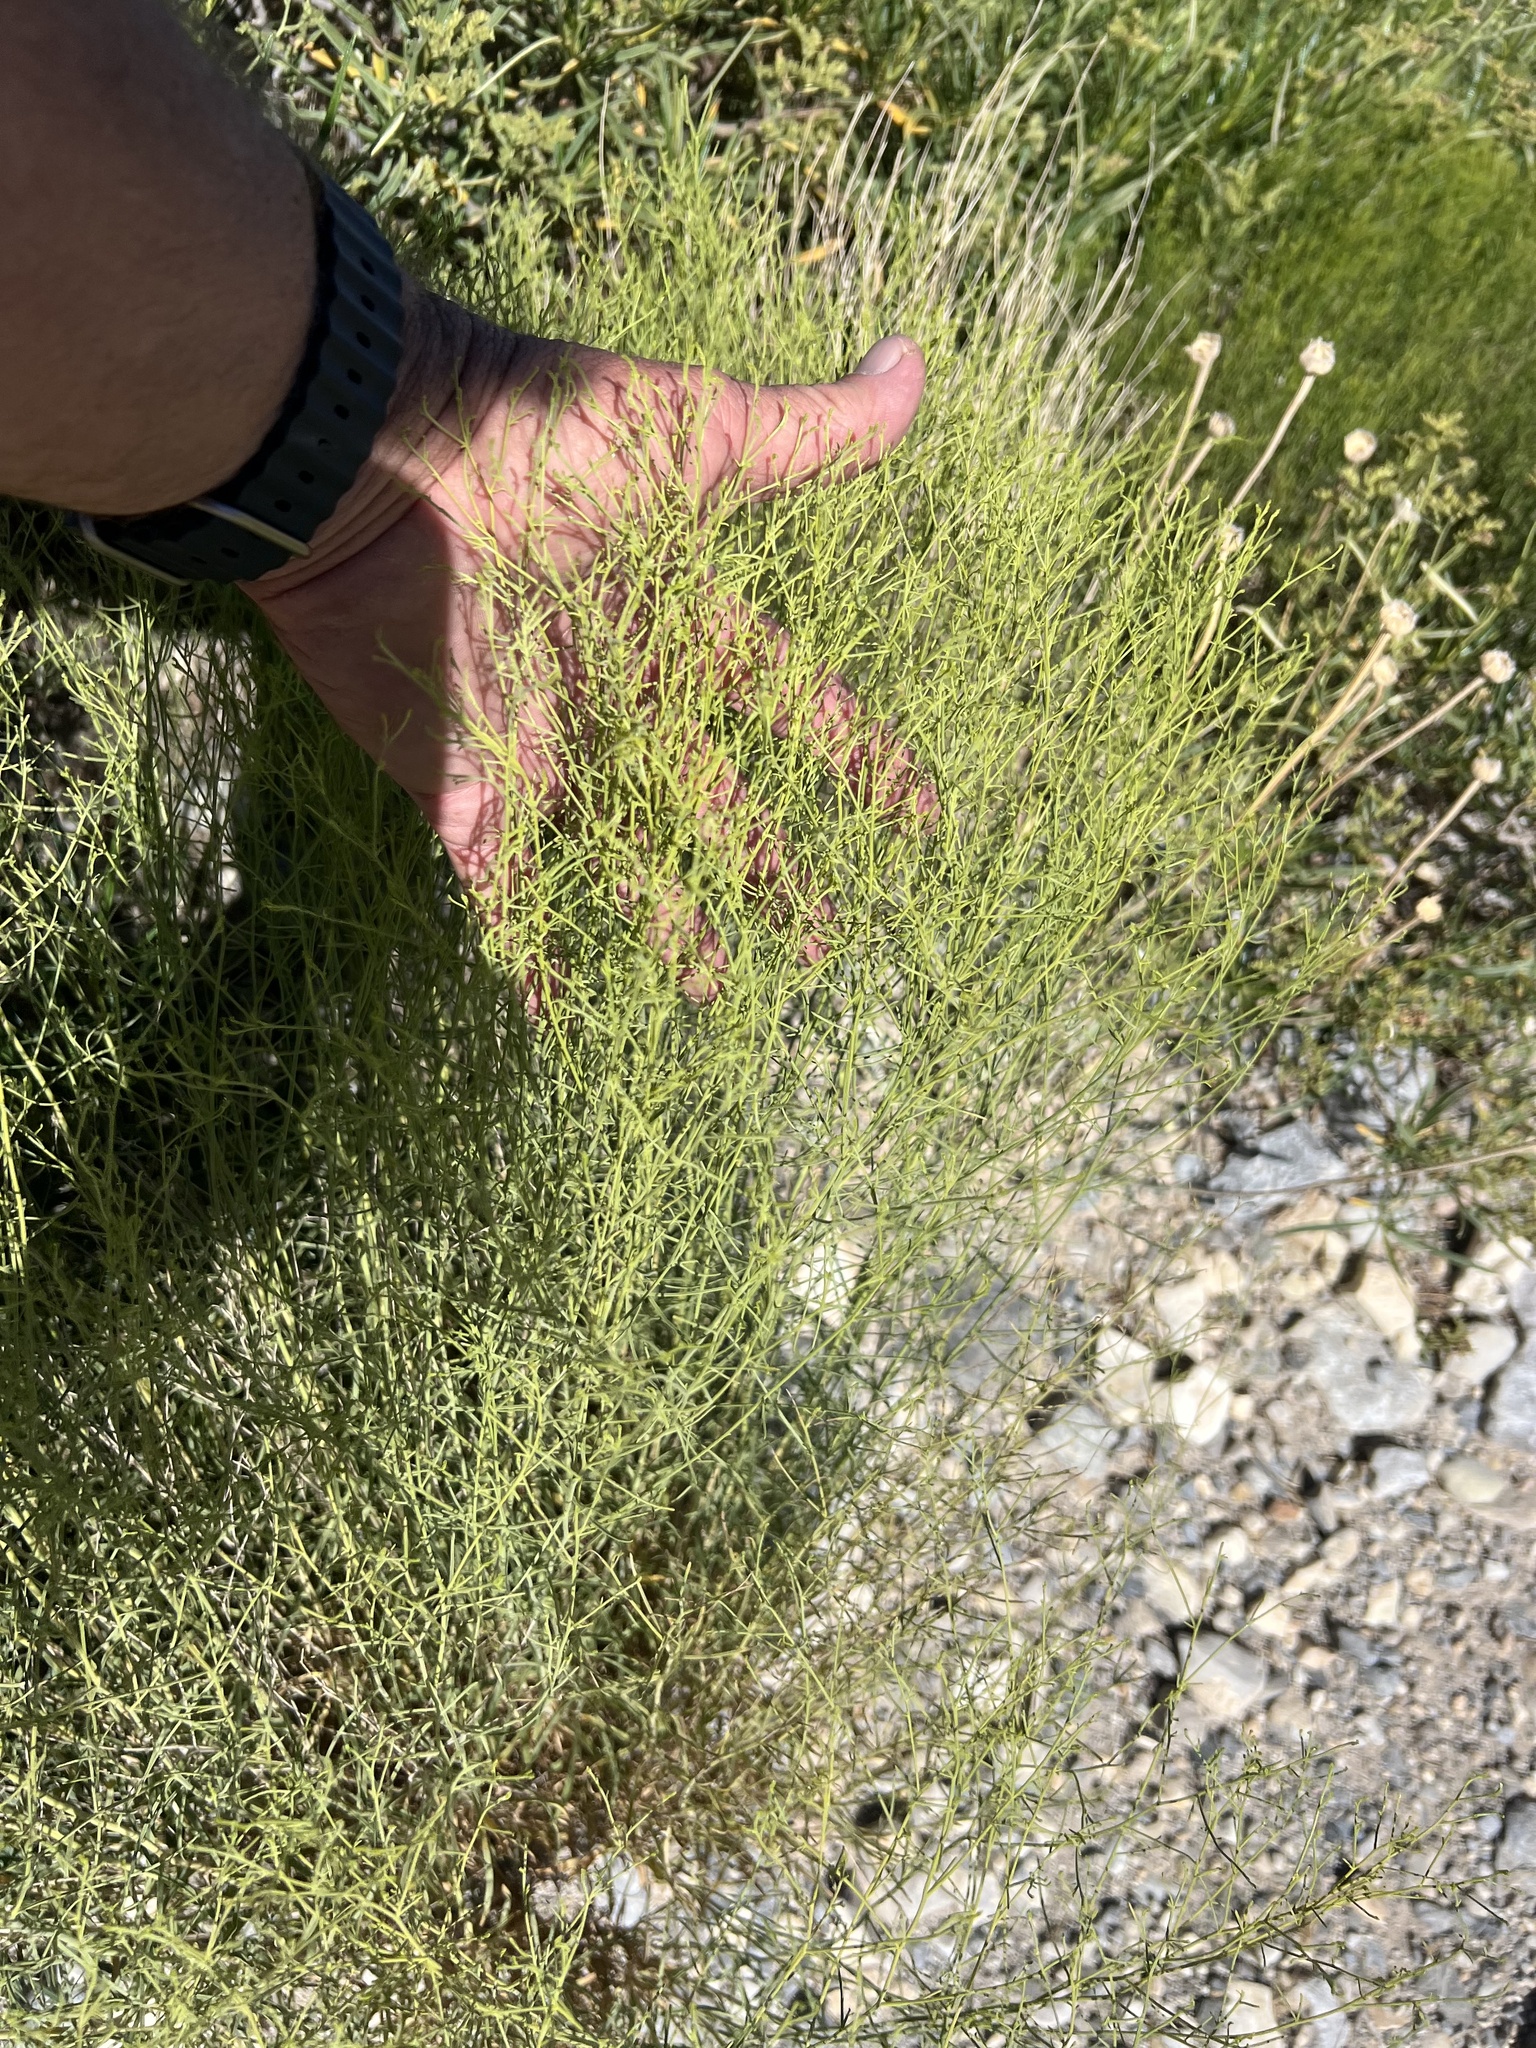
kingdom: Plantae
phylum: Tracheophyta
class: Magnoliopsida
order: Asterales
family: Asteraceae
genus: Ambrosia
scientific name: Ambrosia salsola
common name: Burrobrush
